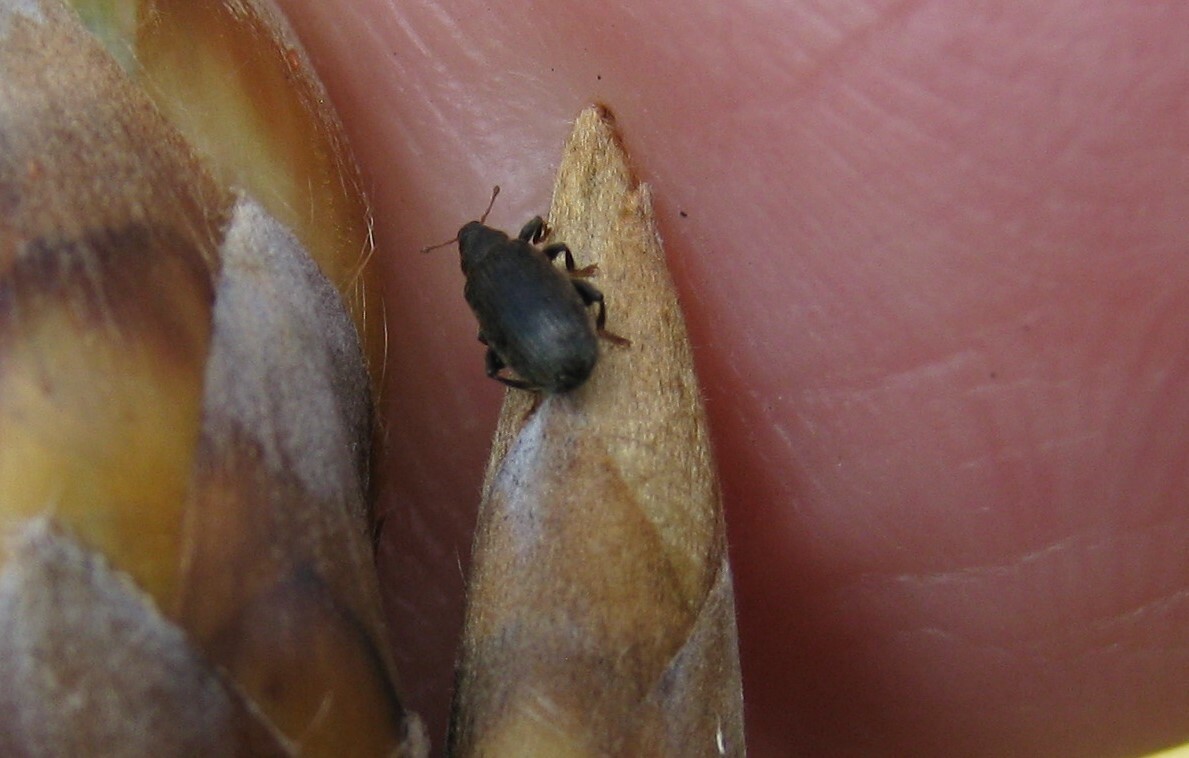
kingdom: Animalia
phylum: Arthropoda
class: Insecta
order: Coleoptera
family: Curculionidae
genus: Orchestes
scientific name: Orchestes fagi
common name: Beech leaf miner
